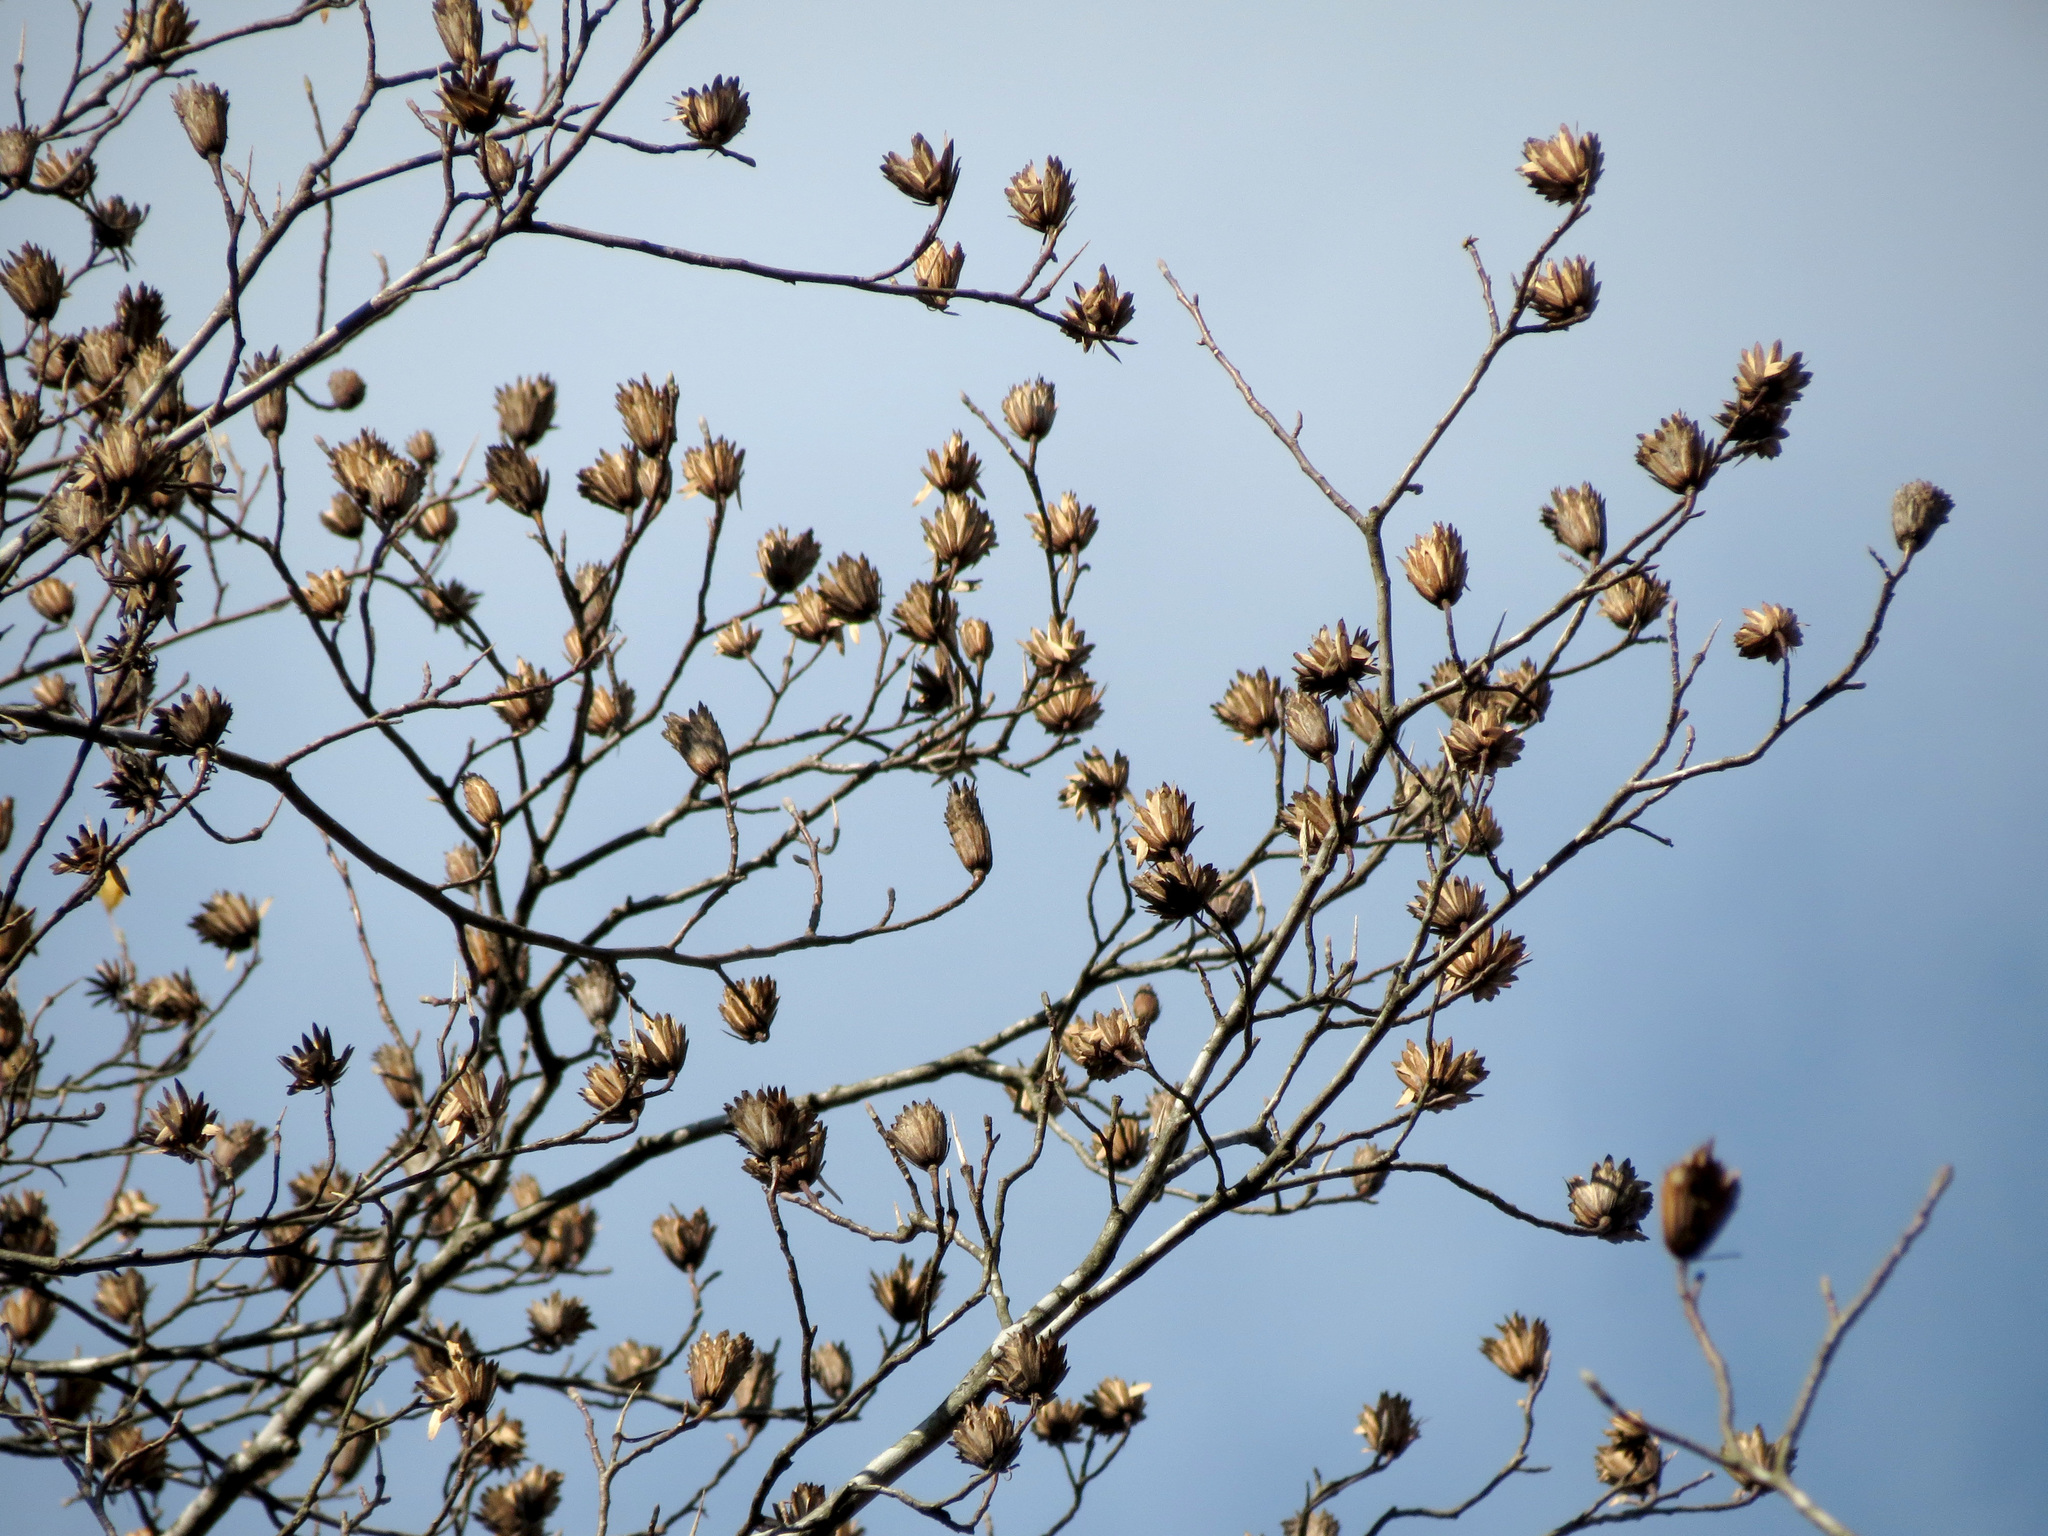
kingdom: Plantae
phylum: Tracheophyta
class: Magnoliopsida
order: Magnoliales
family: Magnoliaceae
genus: Liriodendron
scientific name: Liriodendron tulipifera
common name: Tulip tree
